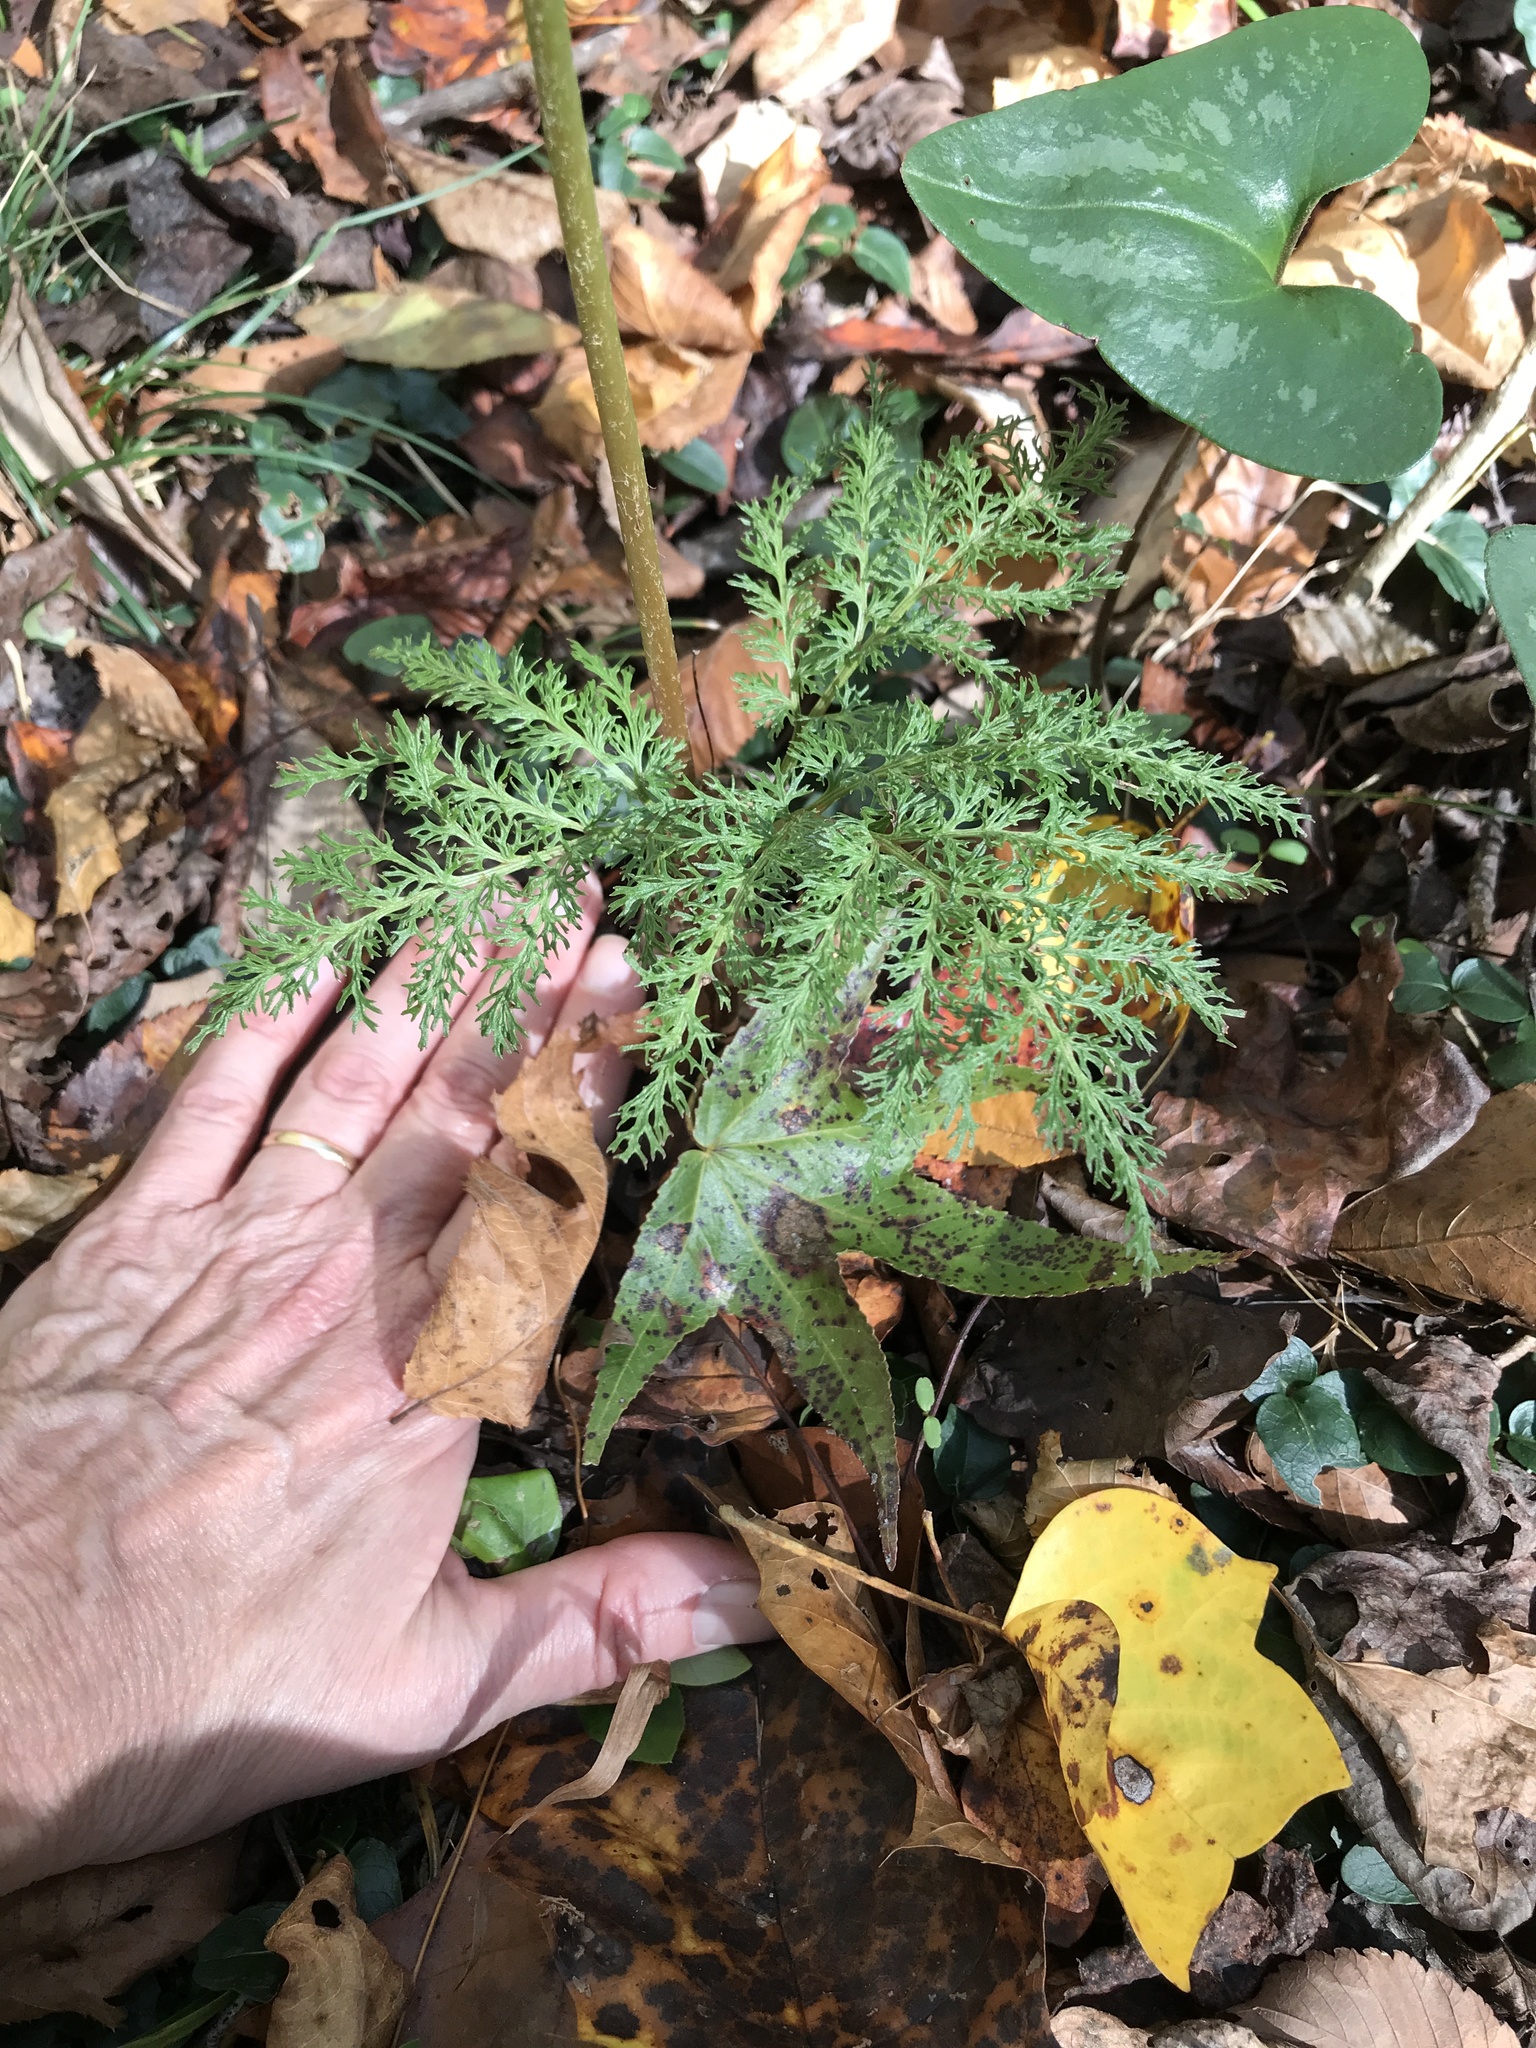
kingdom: Plantae
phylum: Tracheophyta
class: Polypodiopsida
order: Ophioglossales
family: Ophioglossaceae
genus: Sceptridium
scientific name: Sceptridium dissectum
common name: Cut-leaved grapefern
